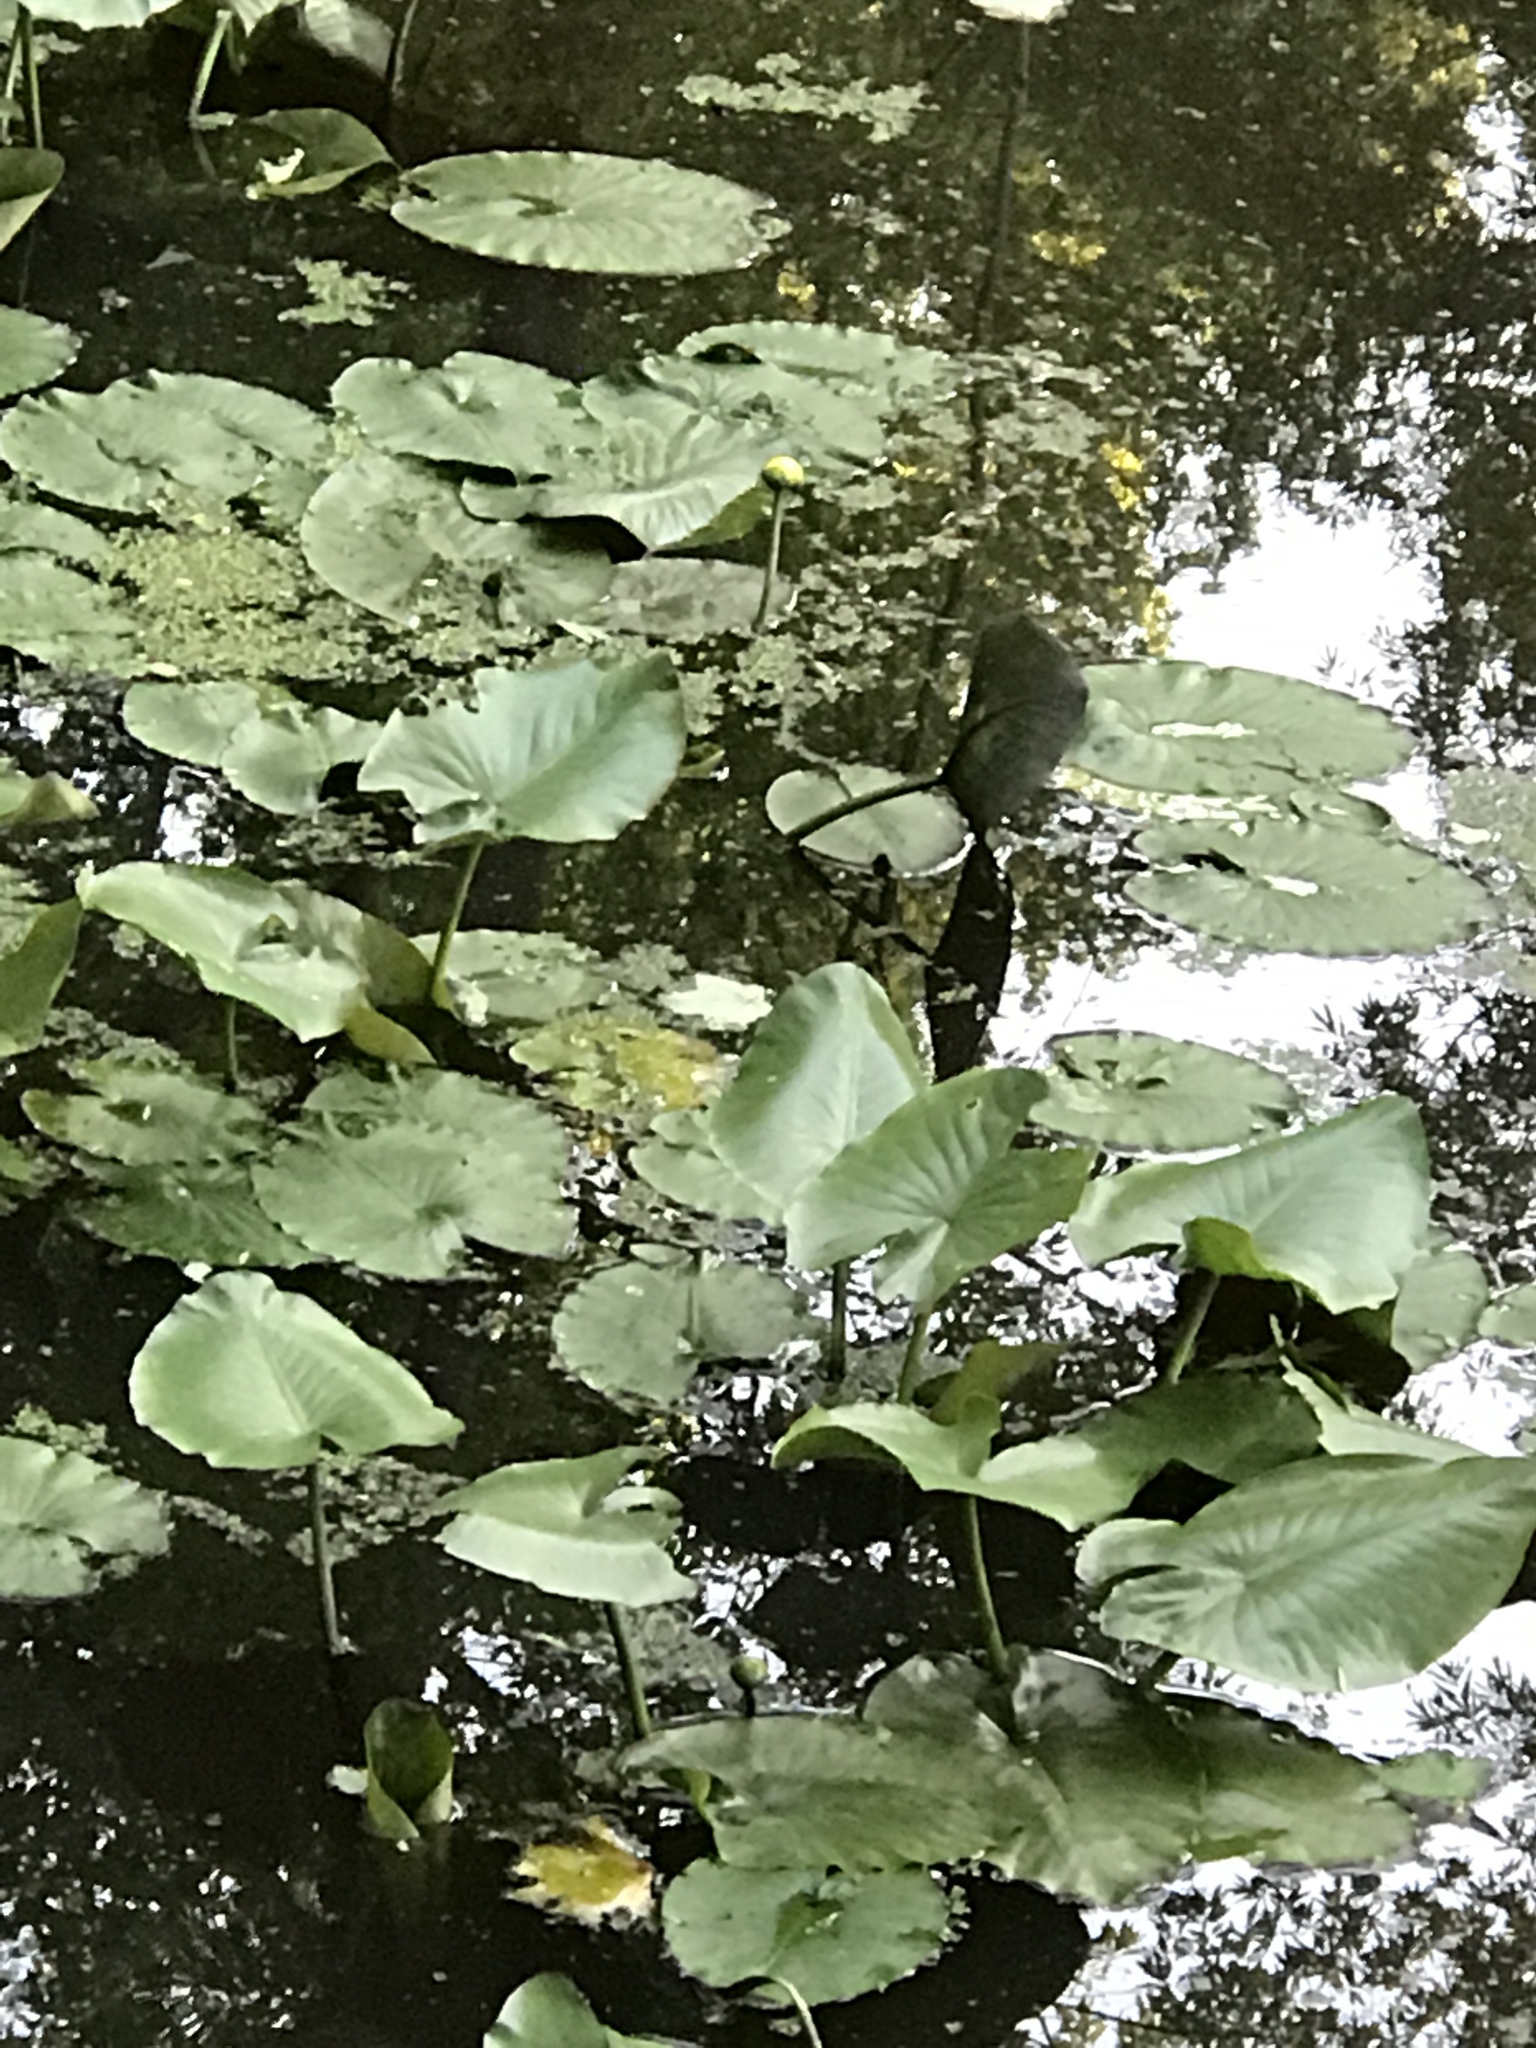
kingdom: Plantae
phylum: Tracheophyta
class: Magnoliopsida
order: Nymphaeales
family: Nymphaeaceae
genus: Nuphar
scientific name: Nuphar advena
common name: Spatter-dock
